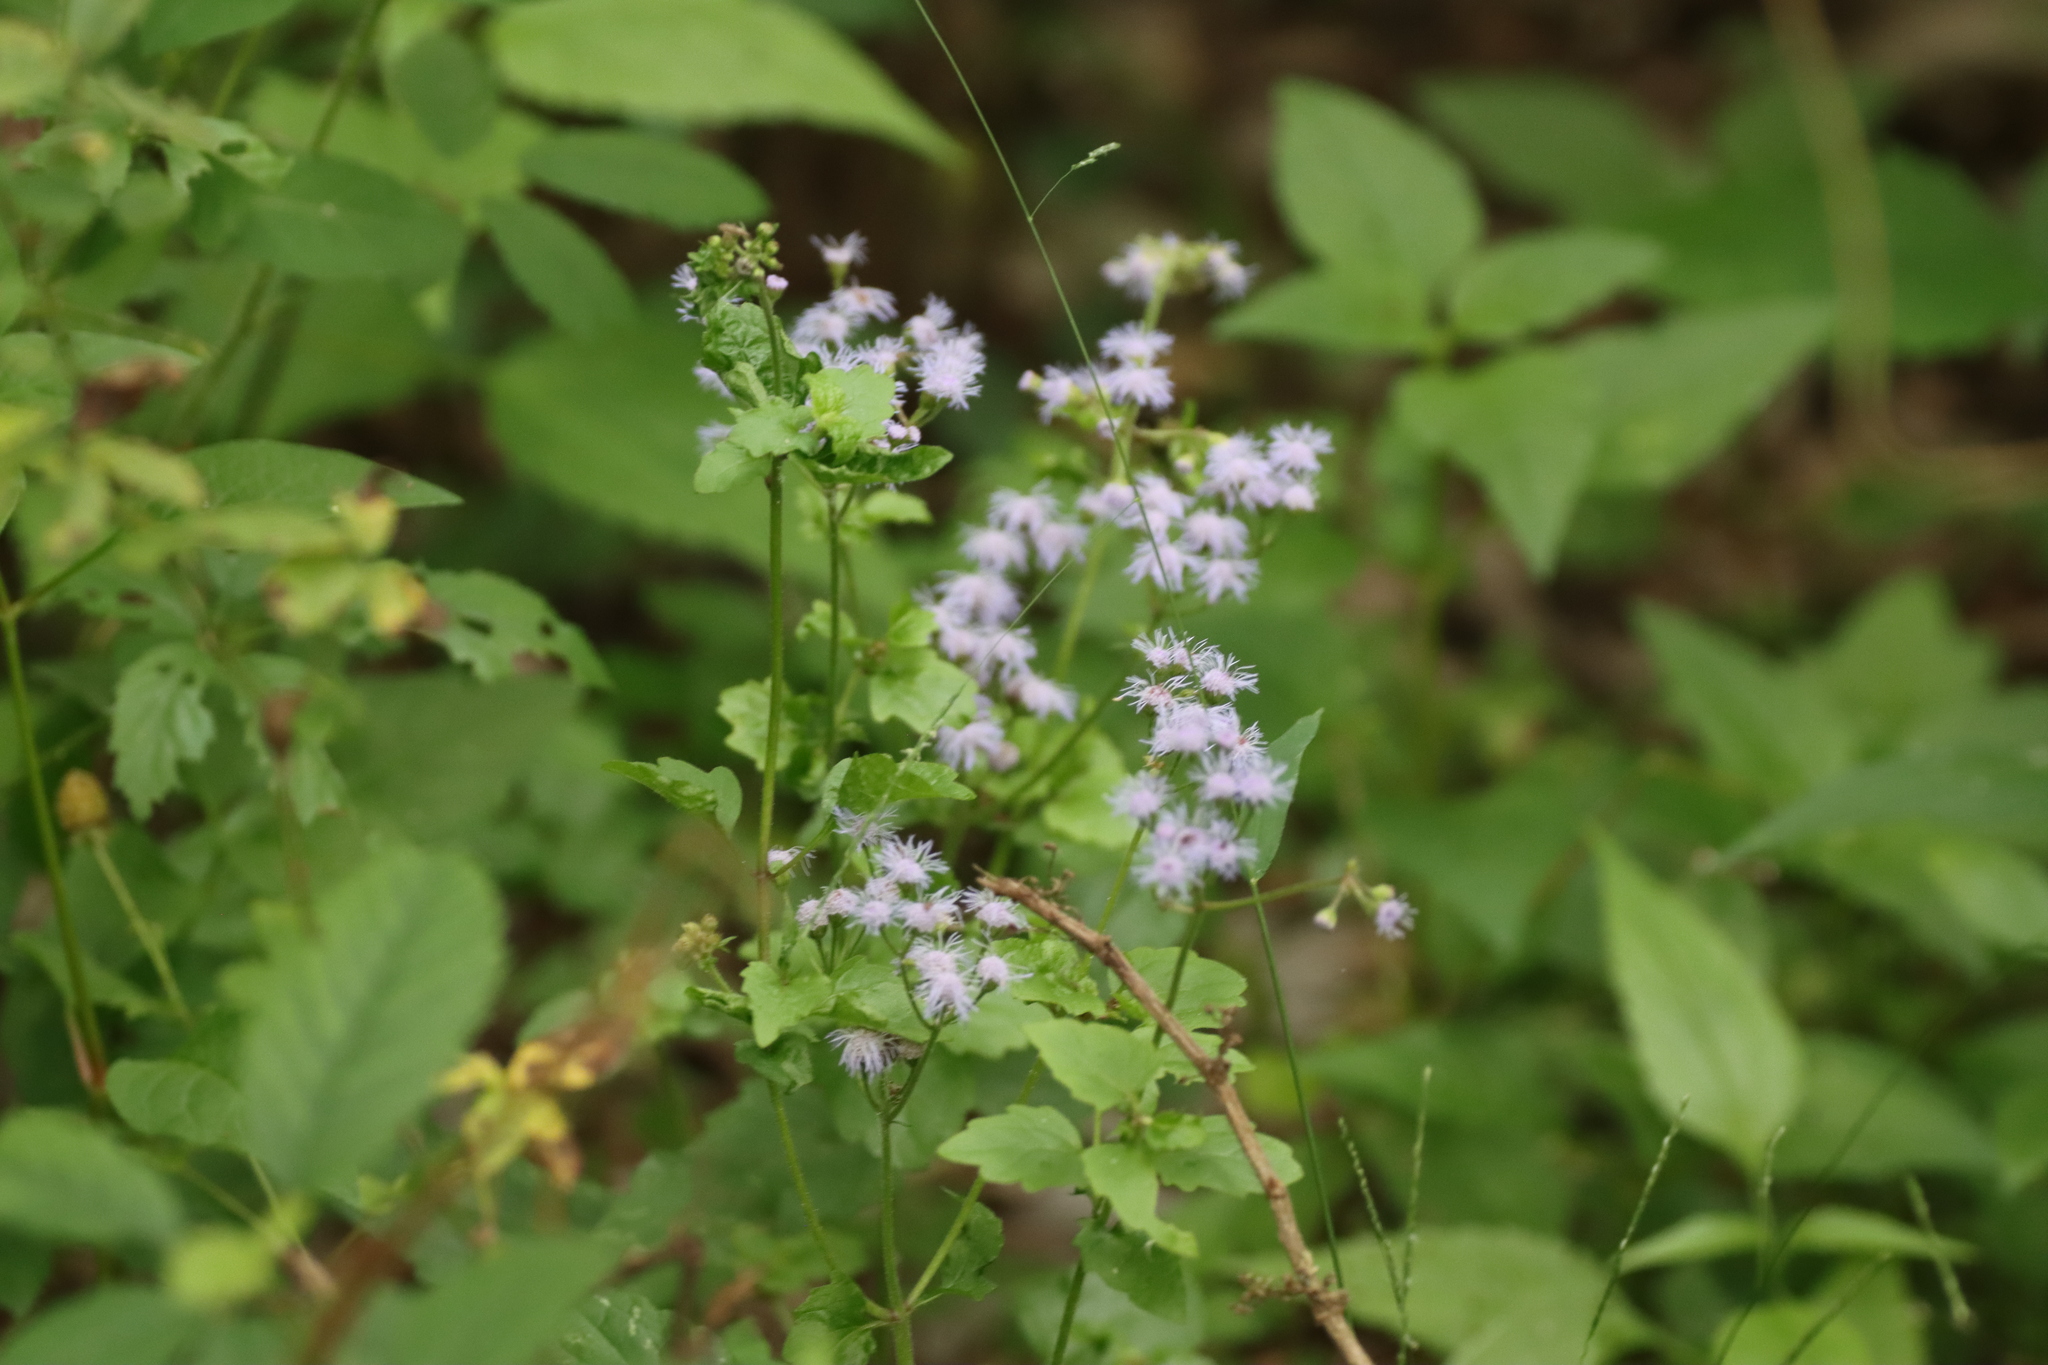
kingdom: Plantae
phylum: Tracheophyta
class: Magnoliopsida
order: Asterales
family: Asteraceae
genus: Conoclinium
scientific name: Conoclinium coelestinum
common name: Blue mistflower
